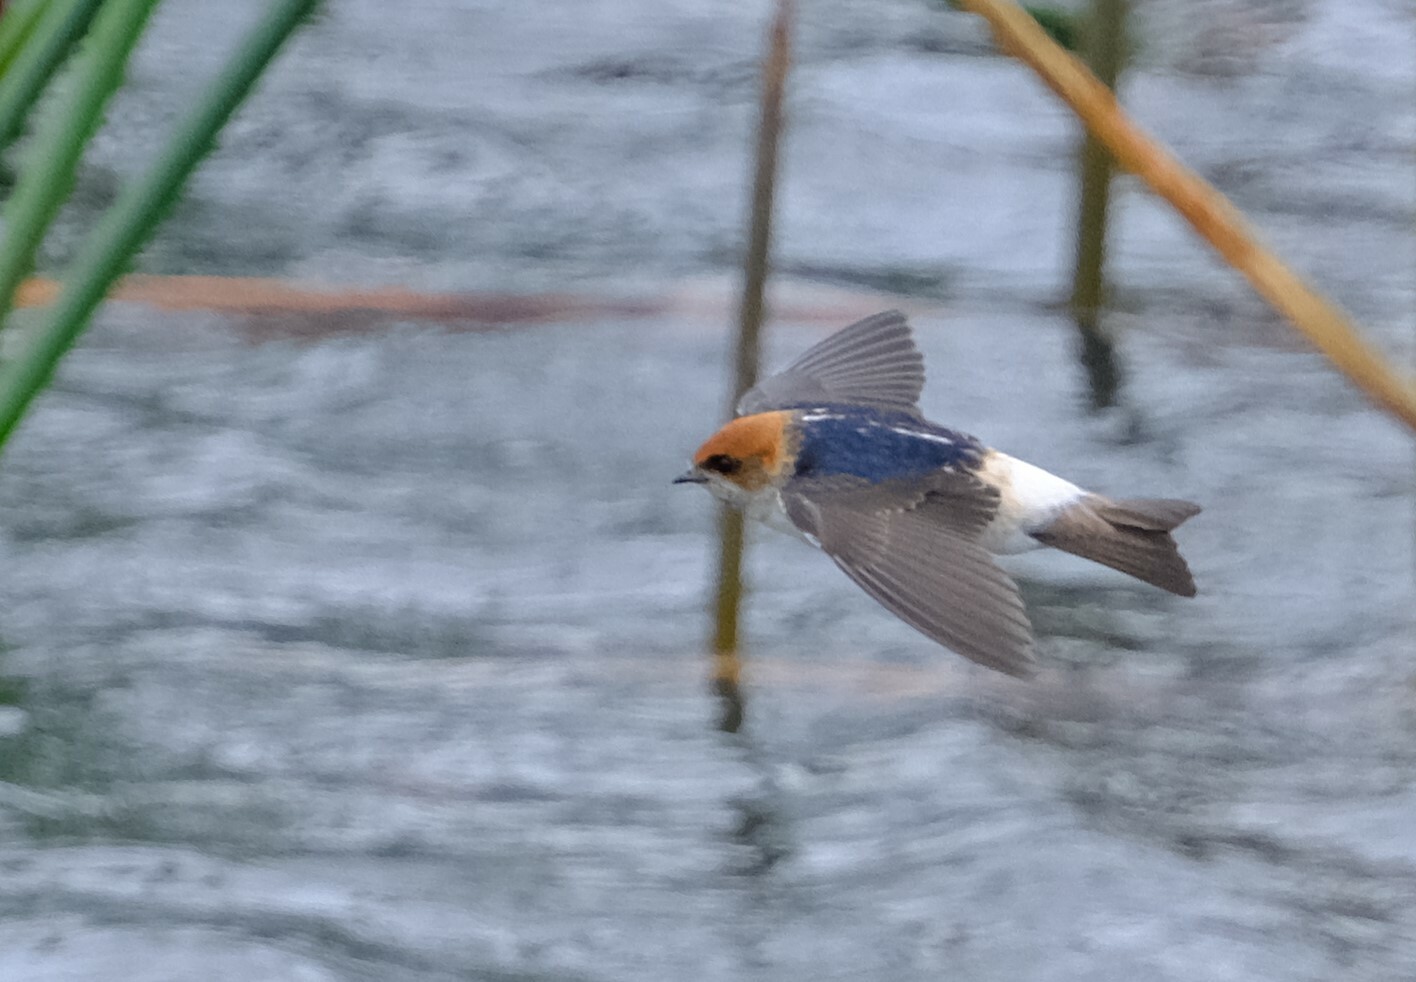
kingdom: Animalia
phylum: Chordata
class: Aves
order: Passeriformes
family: Hirundinidae
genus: Petrochelidon
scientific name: Petrochelidon ariel
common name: Fairy martin
